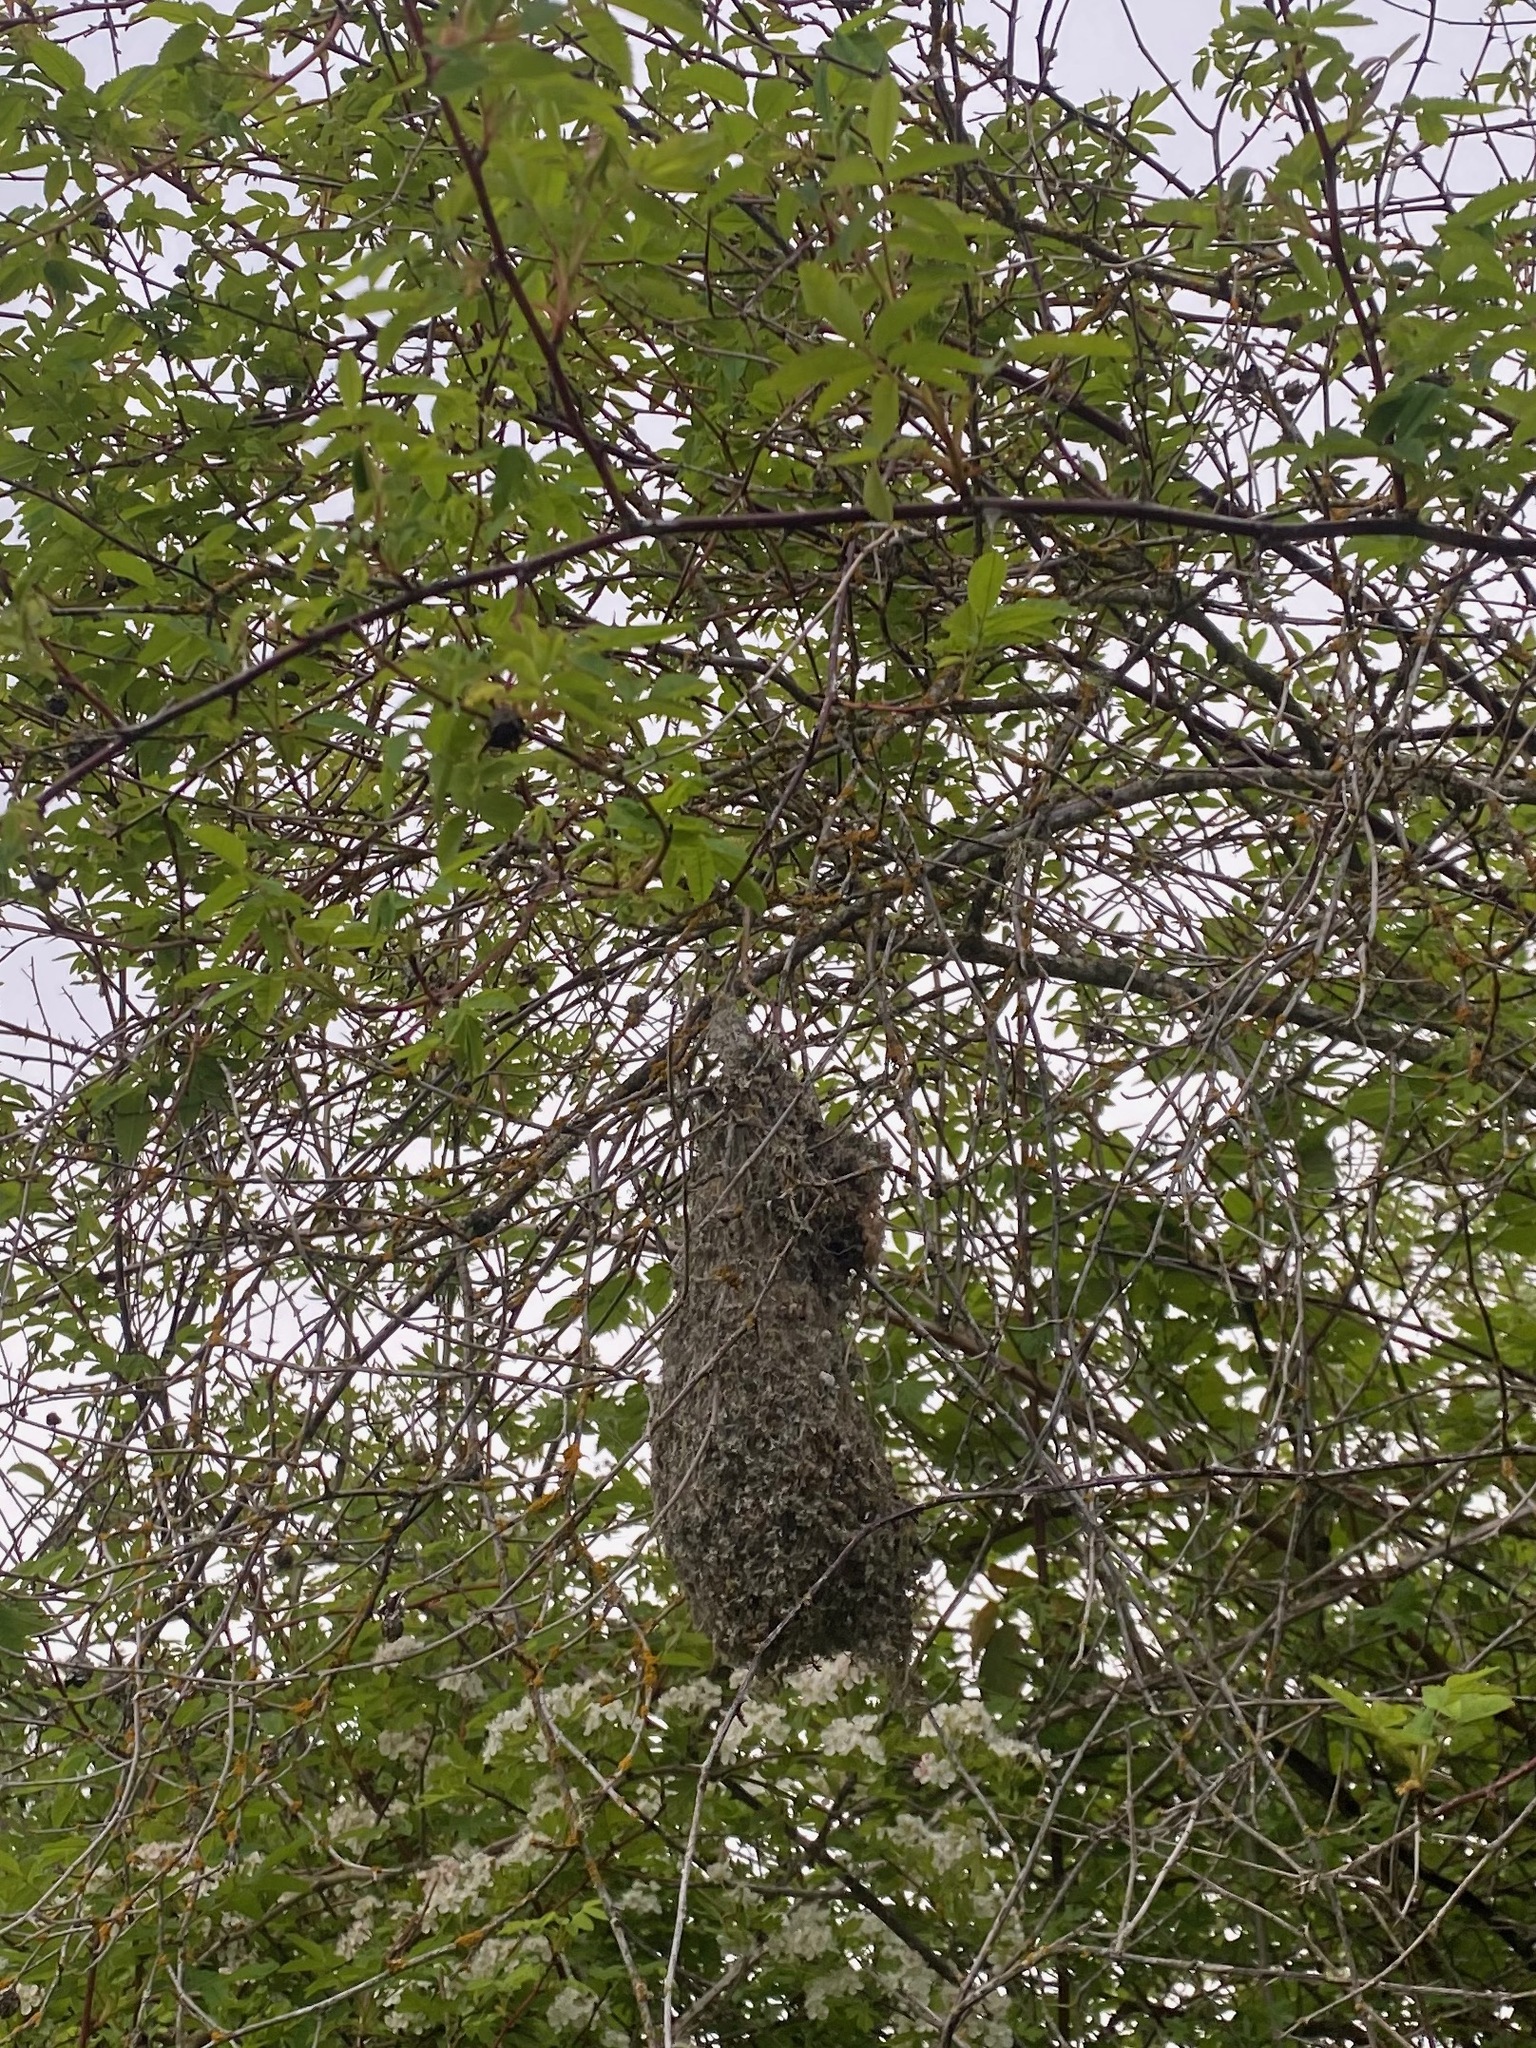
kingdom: Animalia
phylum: Chordata
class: Aves
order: Passeriformes
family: Aegithalidae
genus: Psaltriparus
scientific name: Psaltriparus minimus
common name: American bushtit
